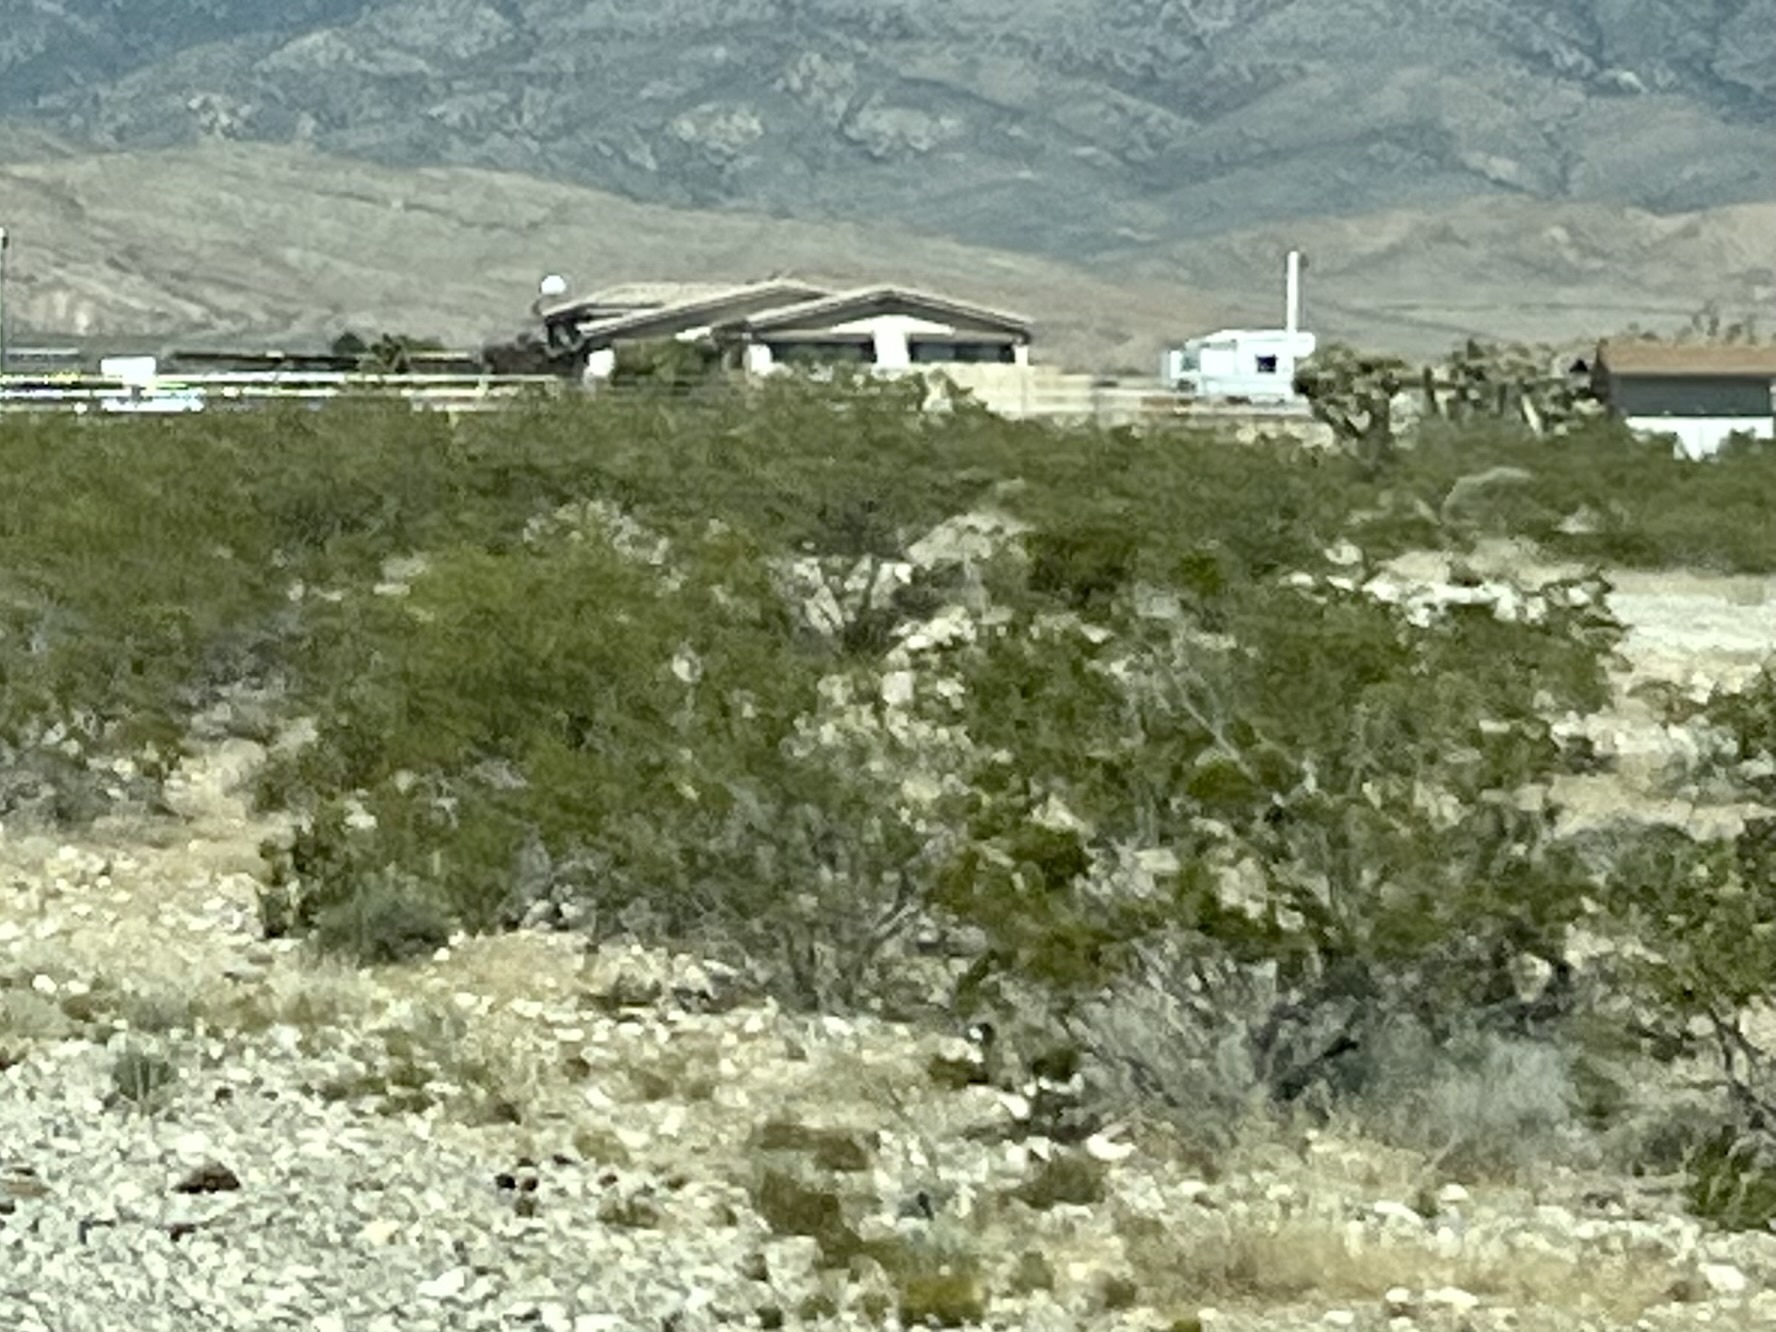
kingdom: Plantae
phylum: Tracheophyta
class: Magnoliopsida
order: Zygophyllales
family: Zygophyllaceae
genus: Larrea
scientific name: Larrea tridentata
